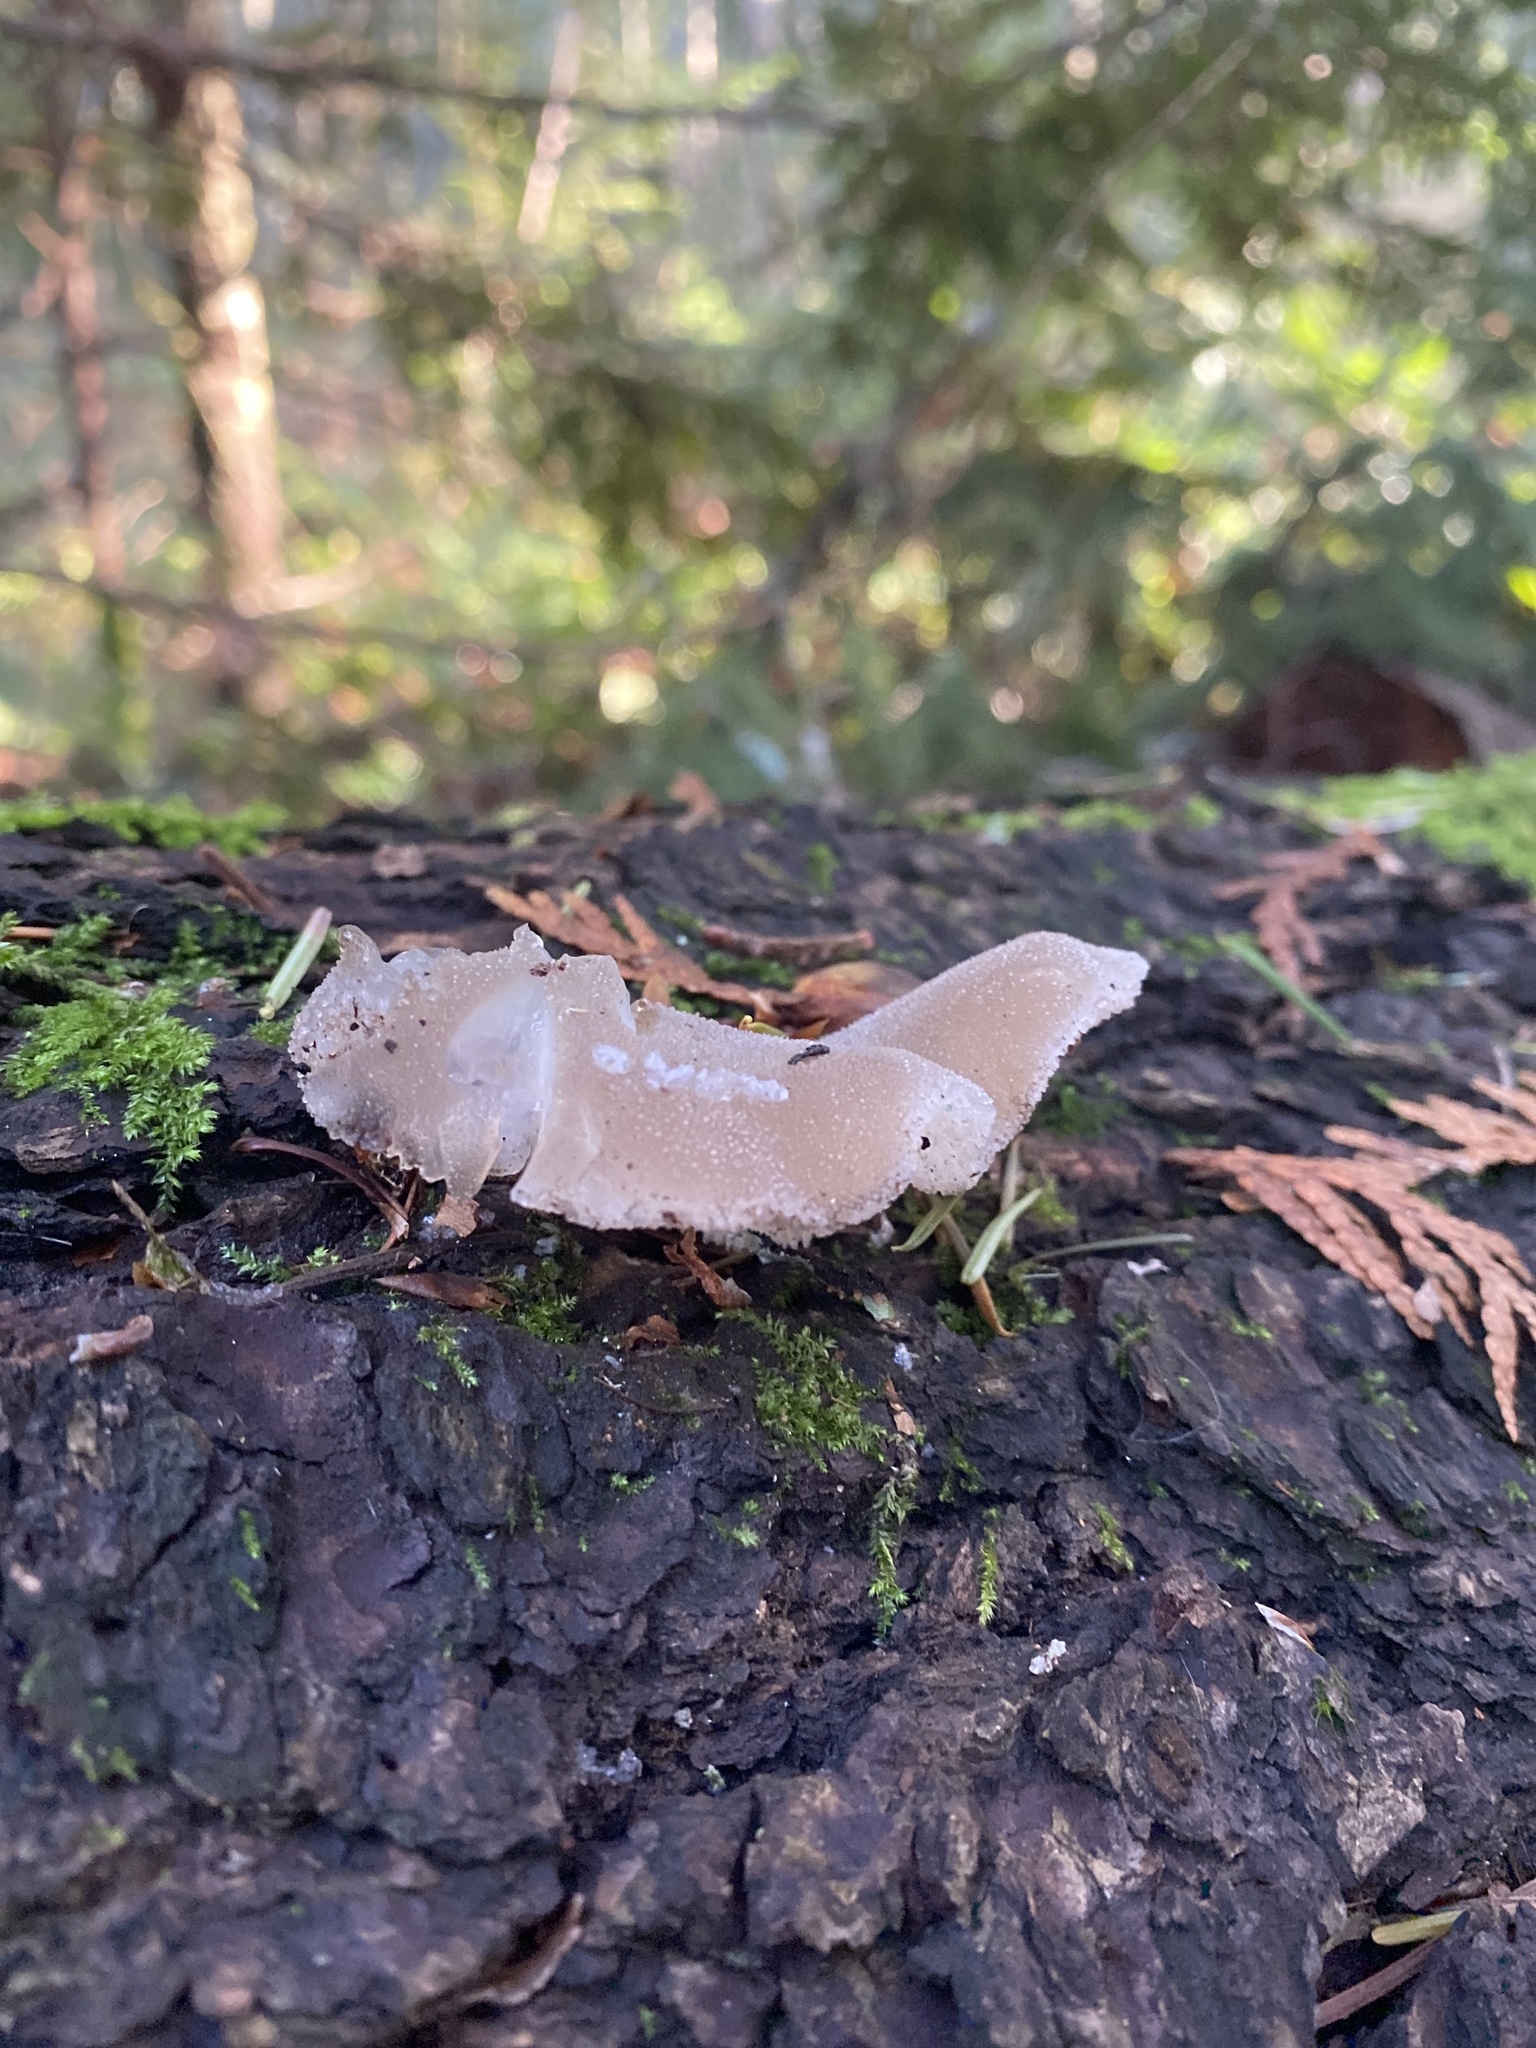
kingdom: Fungi
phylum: Basidiomycota
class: Agaricomycetes
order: Auriculariales
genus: Pseudohydnum
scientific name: Pseudohydnum gelatinosum
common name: Jelly tongue
